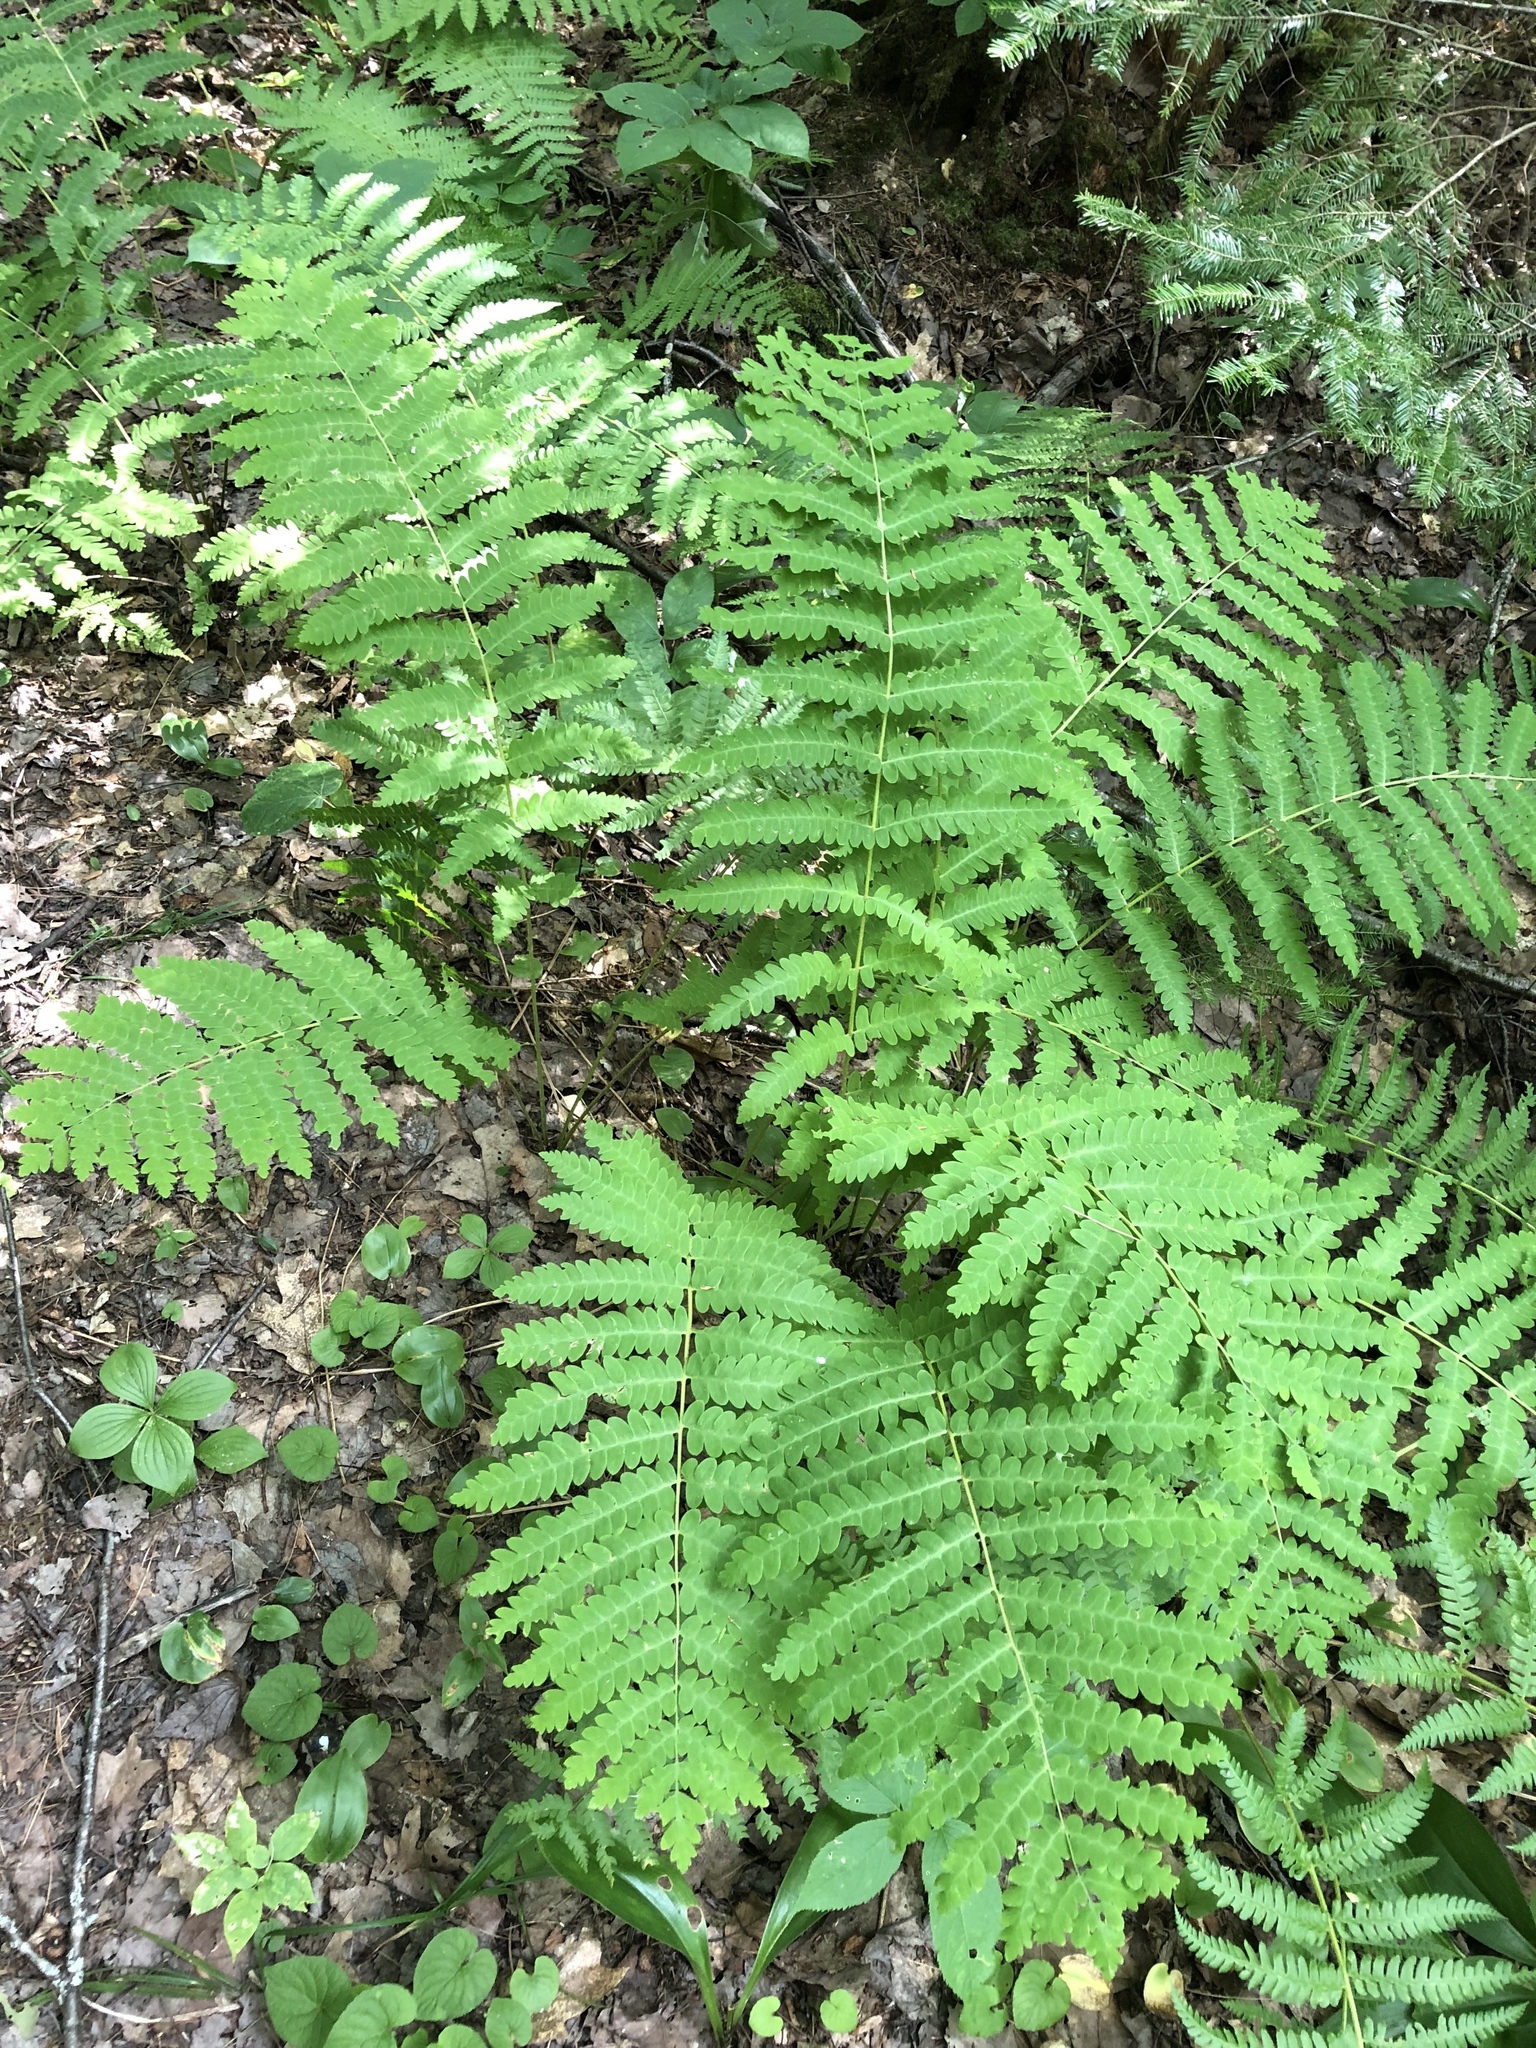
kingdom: Plantae
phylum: Tracheophyta
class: Polypodiopsida
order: Osmundales
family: Osmundaceae
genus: Claytosmunda
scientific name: Claytosmunda claytoniana
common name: Clayton's fern
